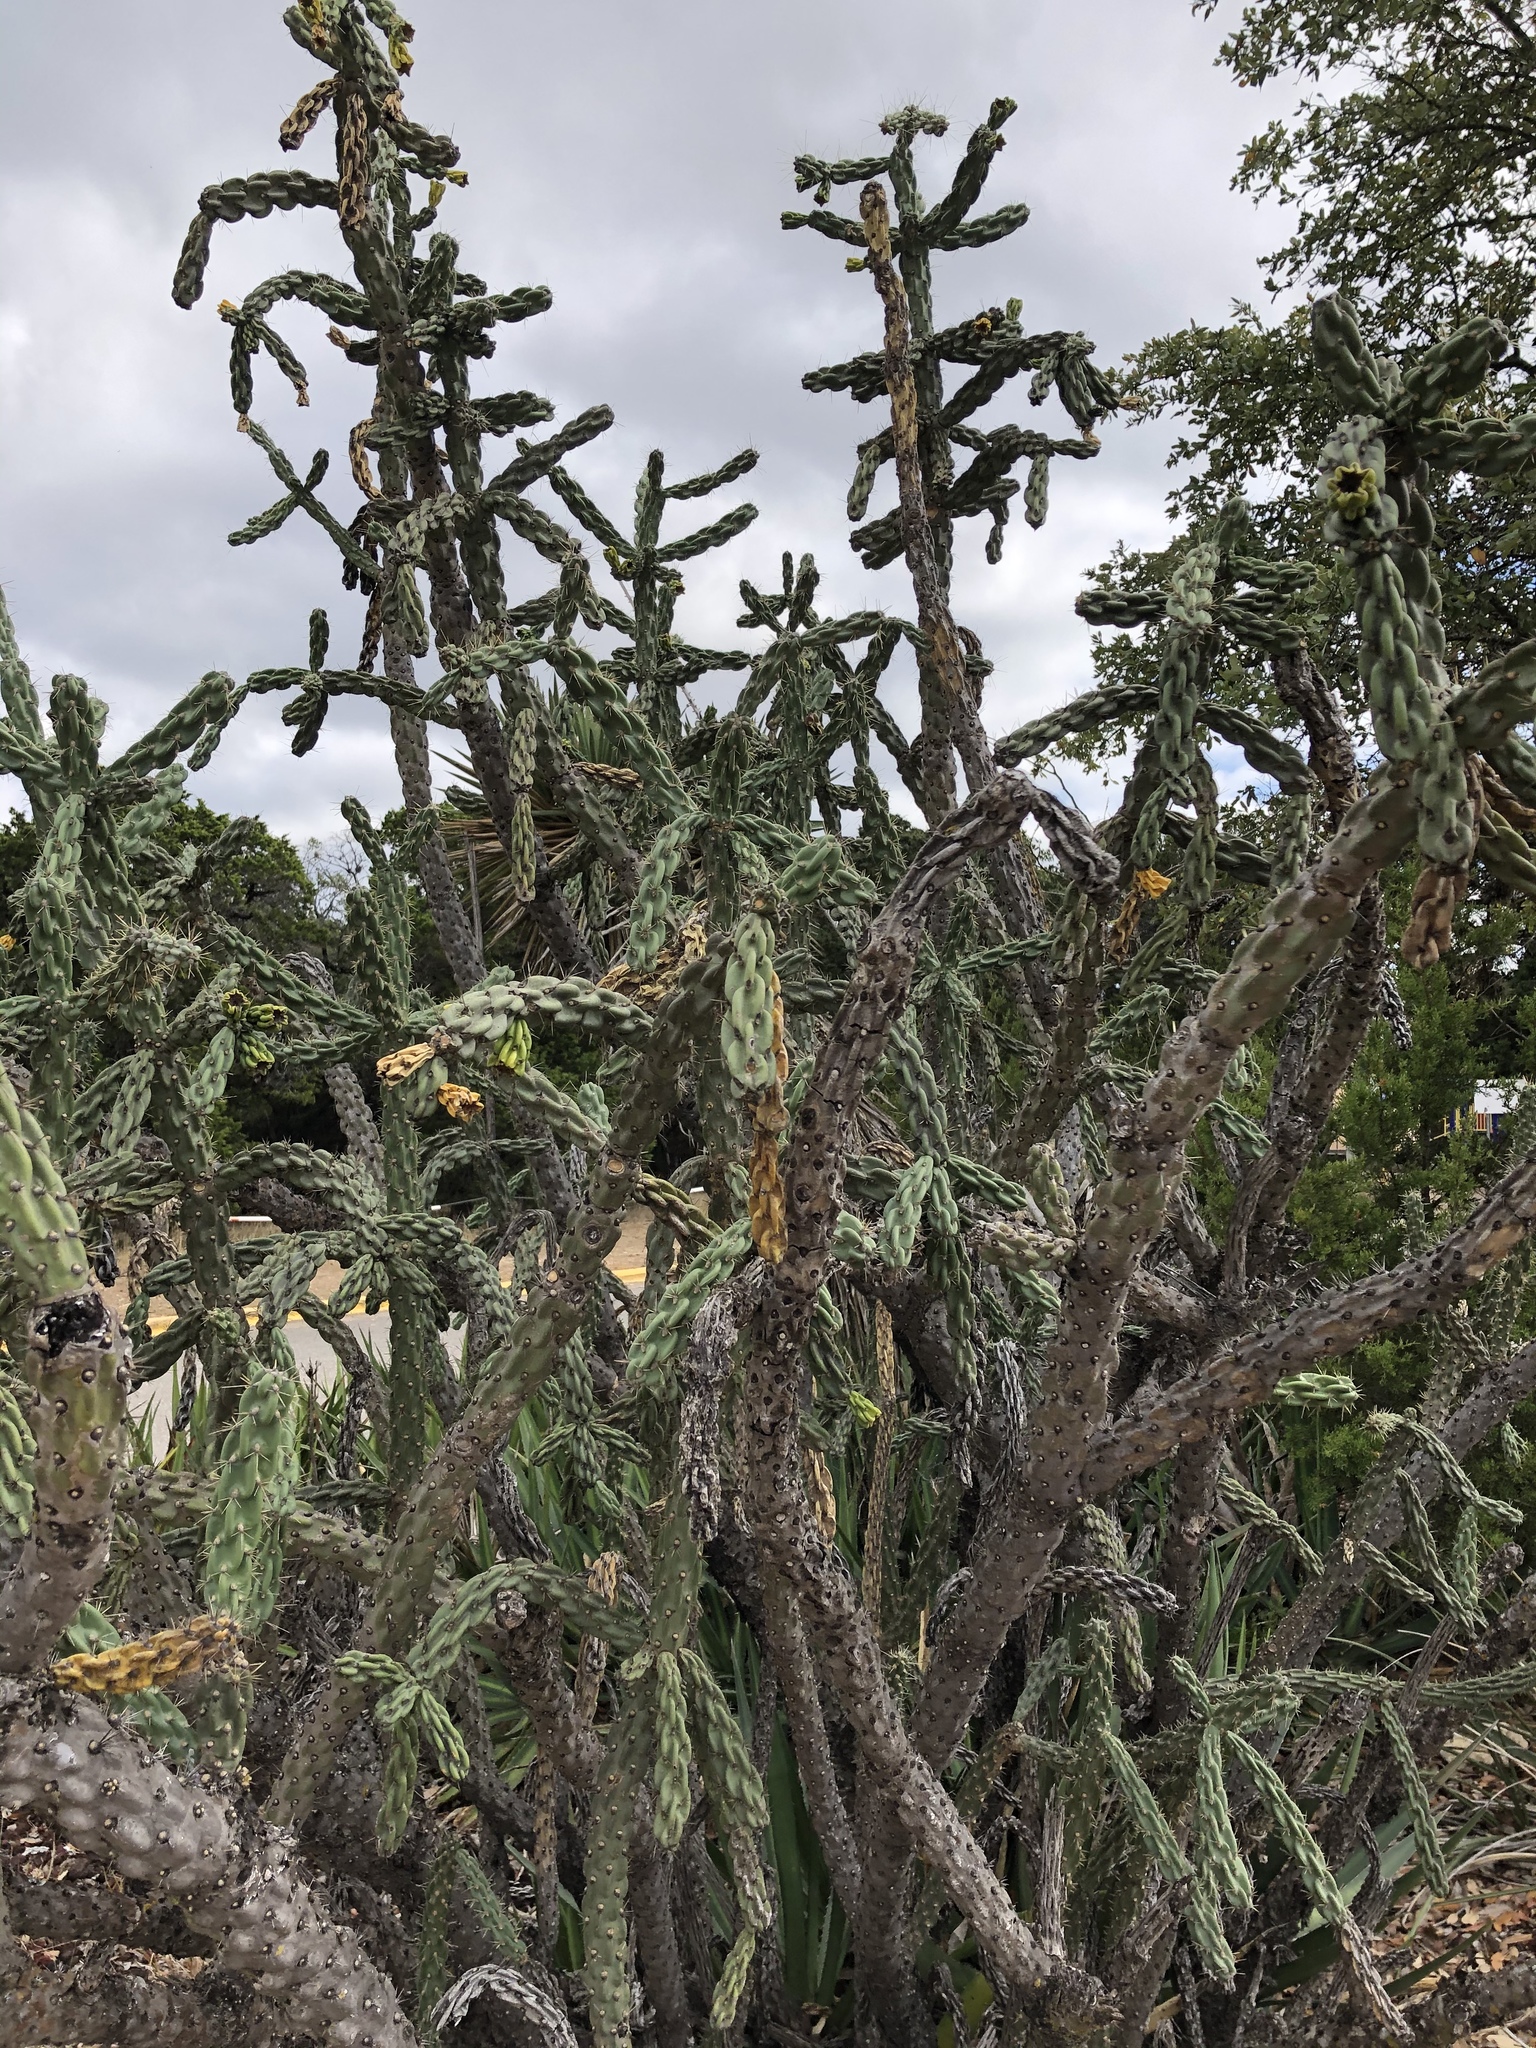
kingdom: Plantae
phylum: Tracheophyta
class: Magnoliopsida
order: Caryophyllales
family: Cactaceae
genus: Cylindropuntia
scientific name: Cylindropuntia imbricata
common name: Candelabrum cactus
